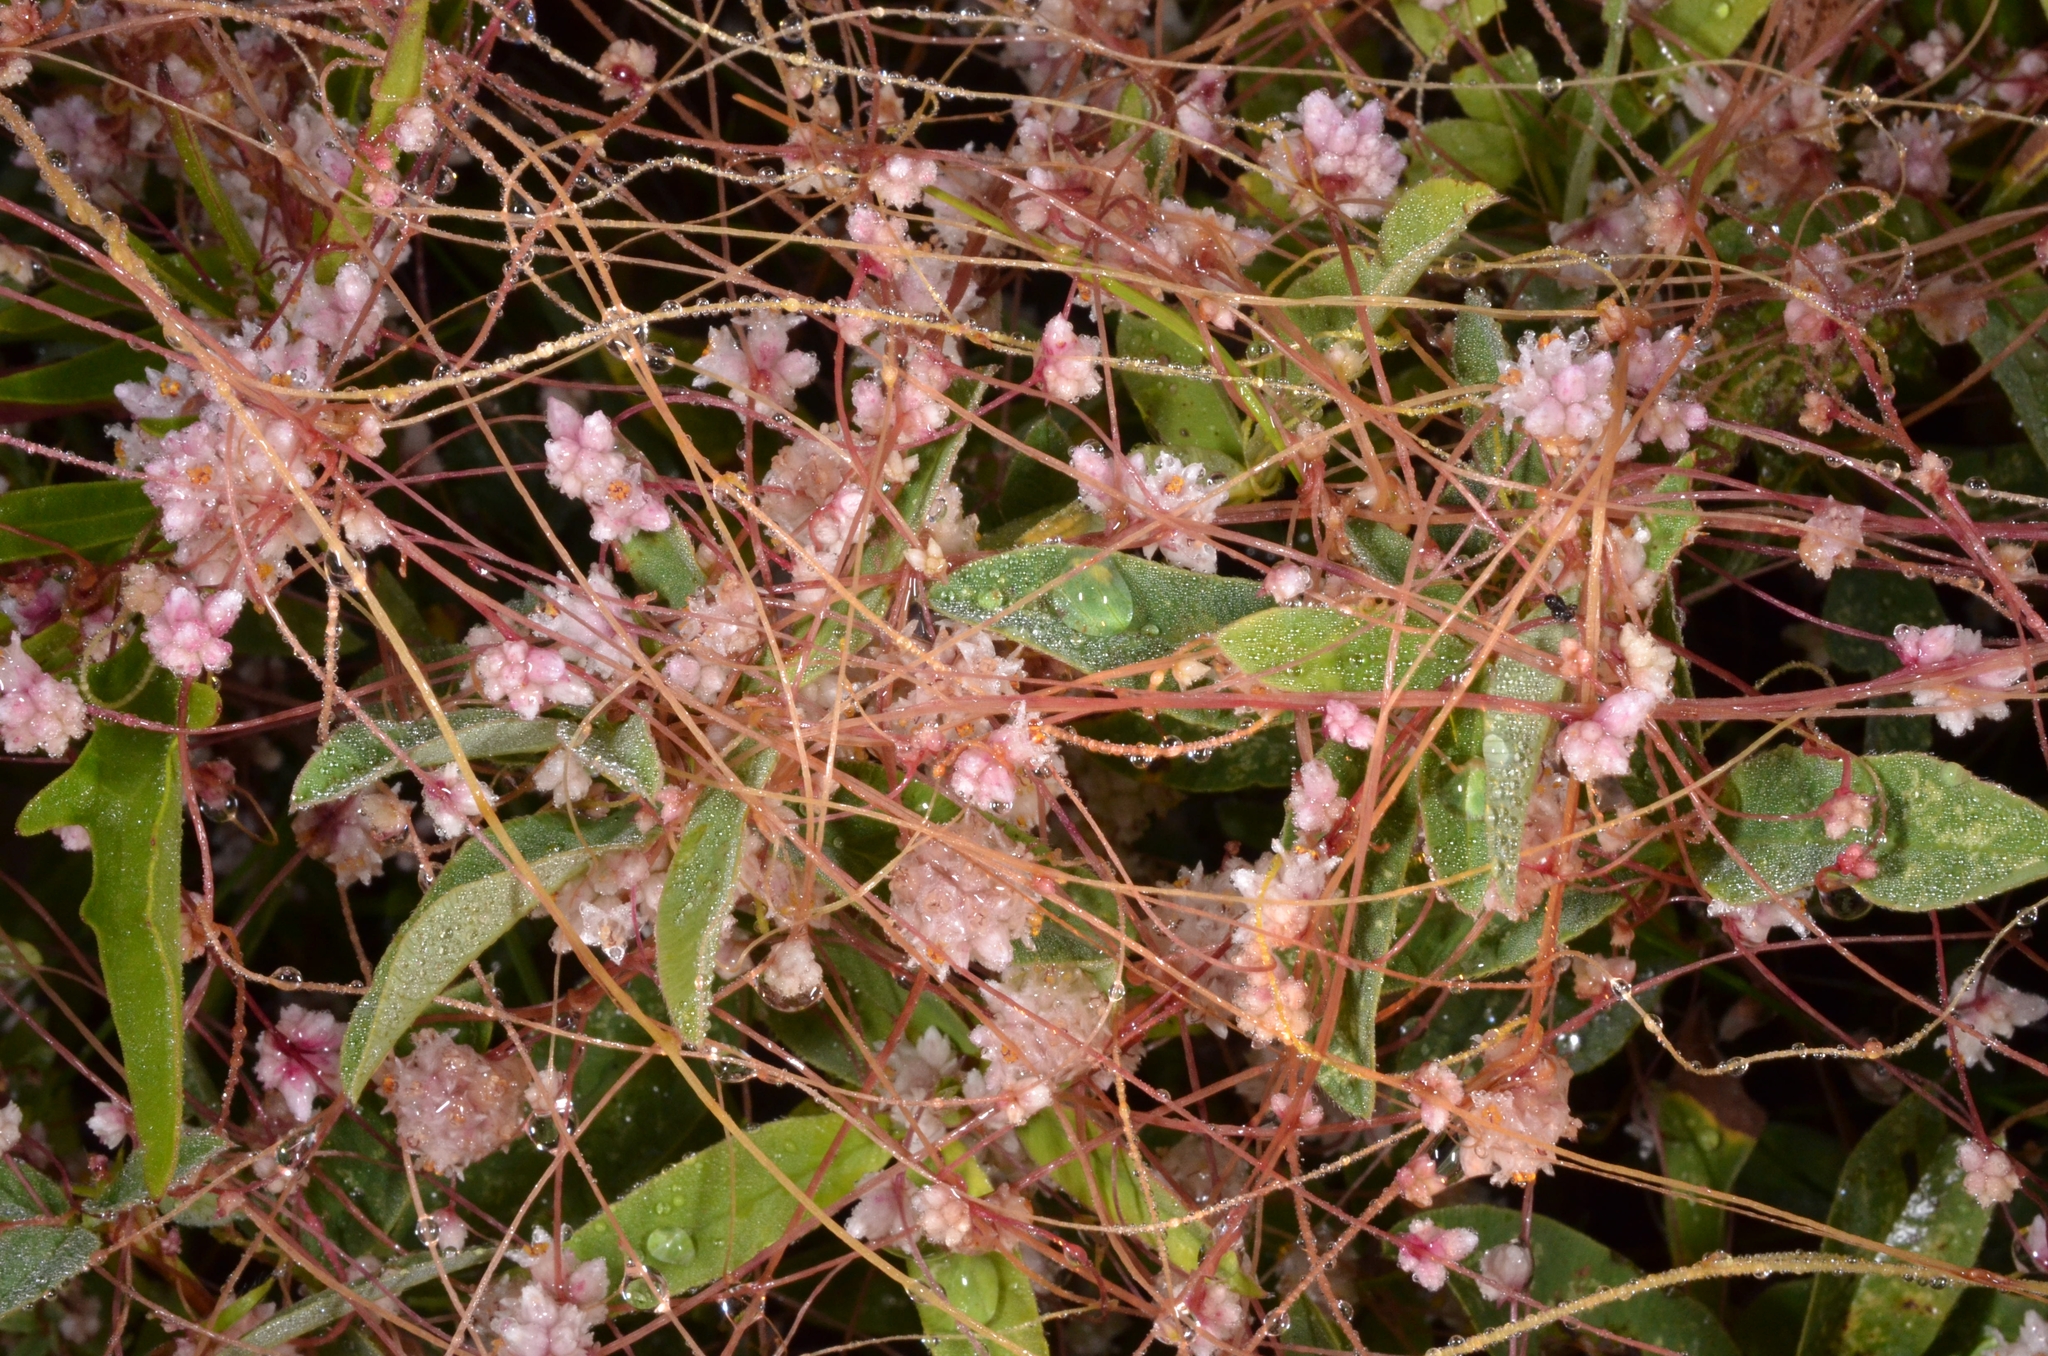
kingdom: Plantae
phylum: Tracheophyta
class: Magnoliopsida
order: Solanales
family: Convolvulaceae
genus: Cuscuta
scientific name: Cuscuta epithymum
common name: Clover dodder
